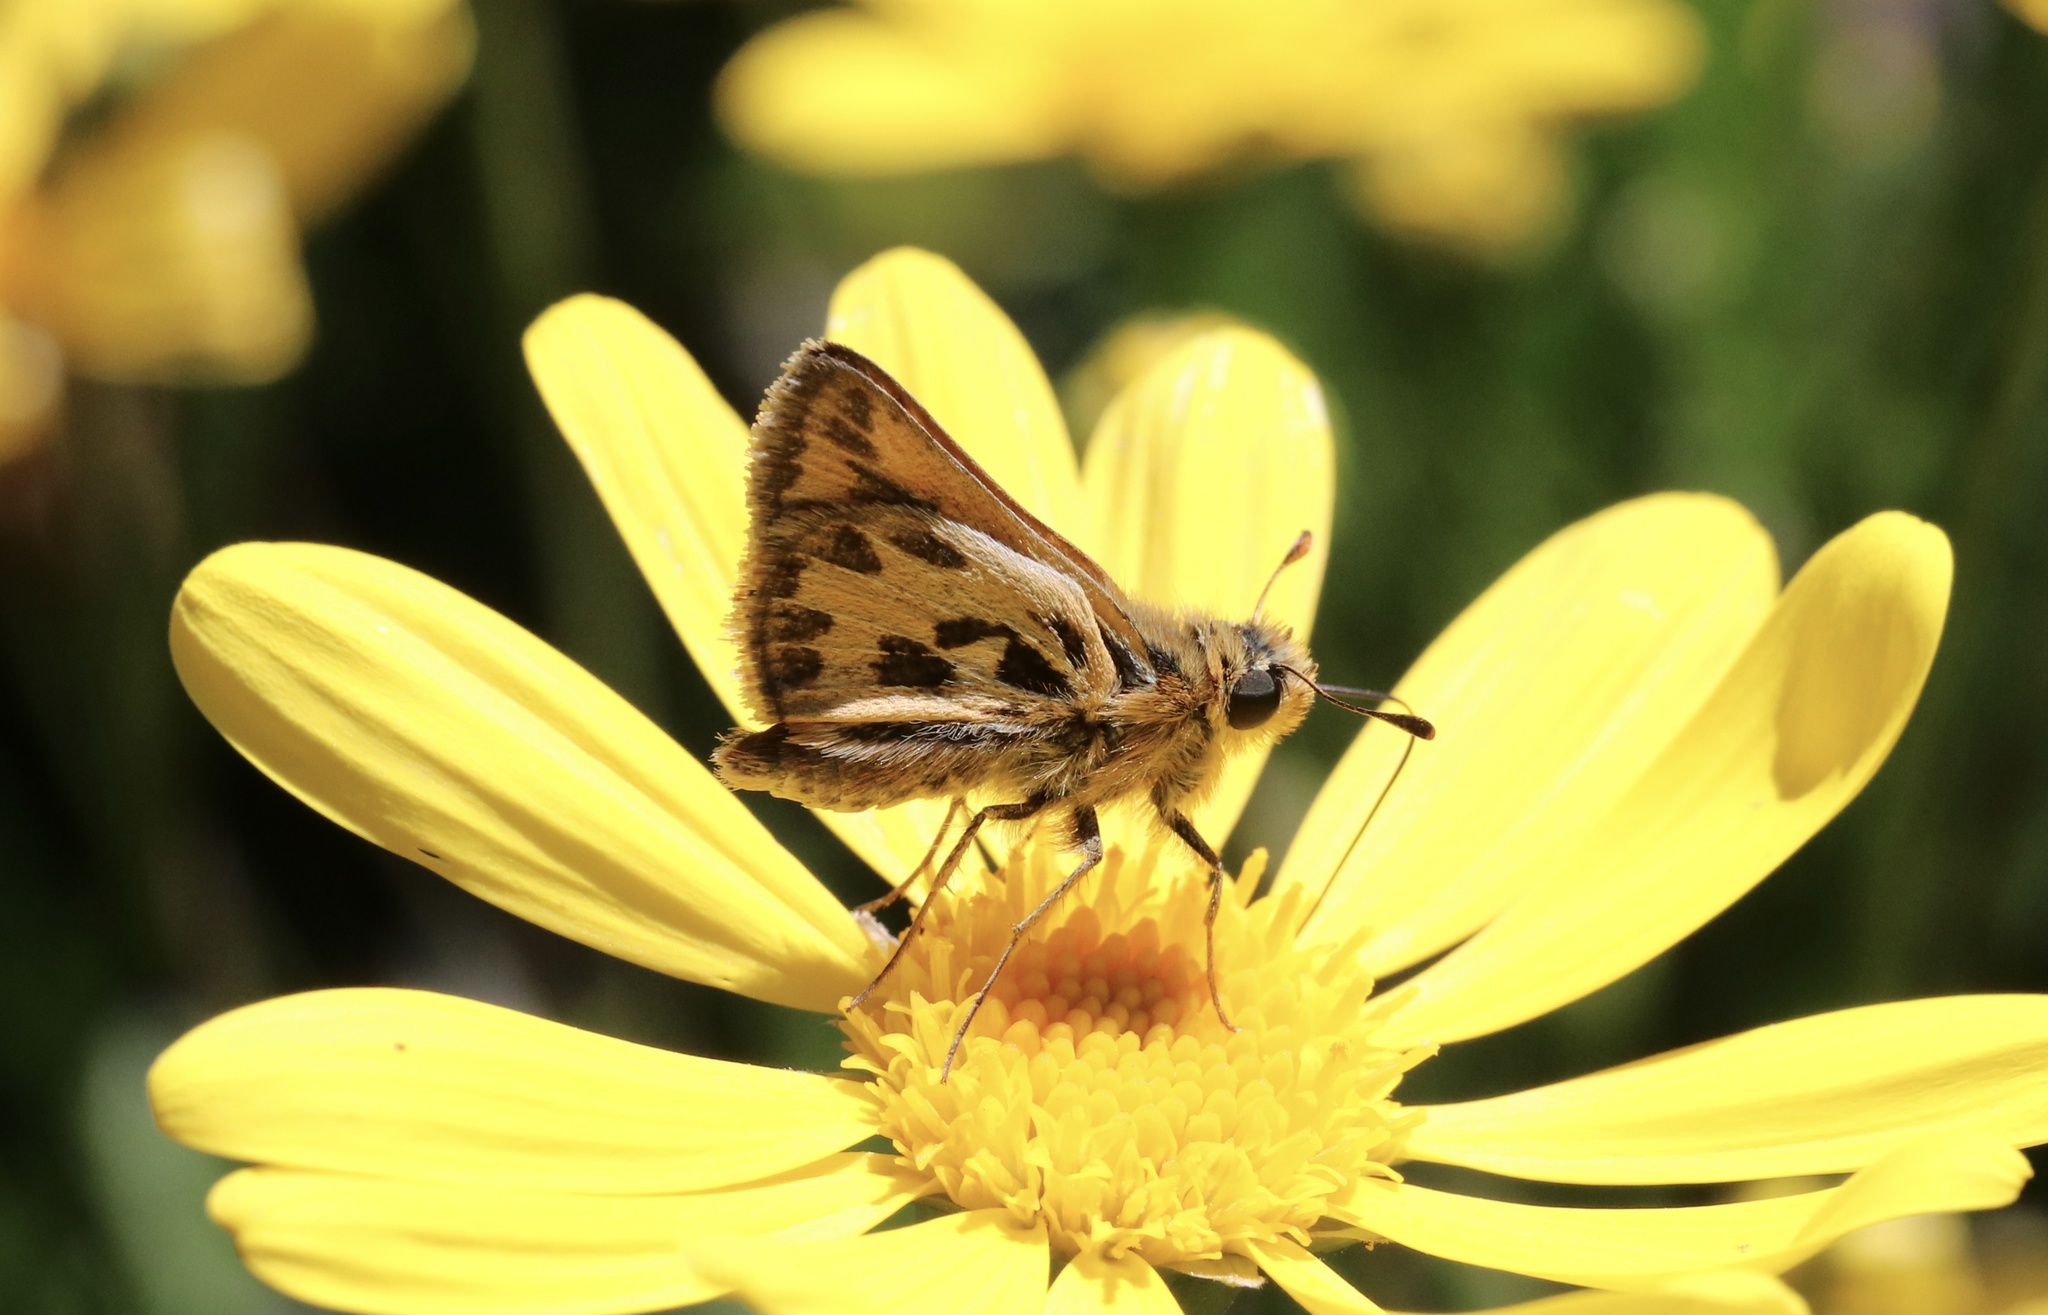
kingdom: Animalia
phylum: Arthropoda
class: Insecta
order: Lepidoptera
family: Hesperiidae
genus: Hylephila
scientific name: Hylephila fasciolata
